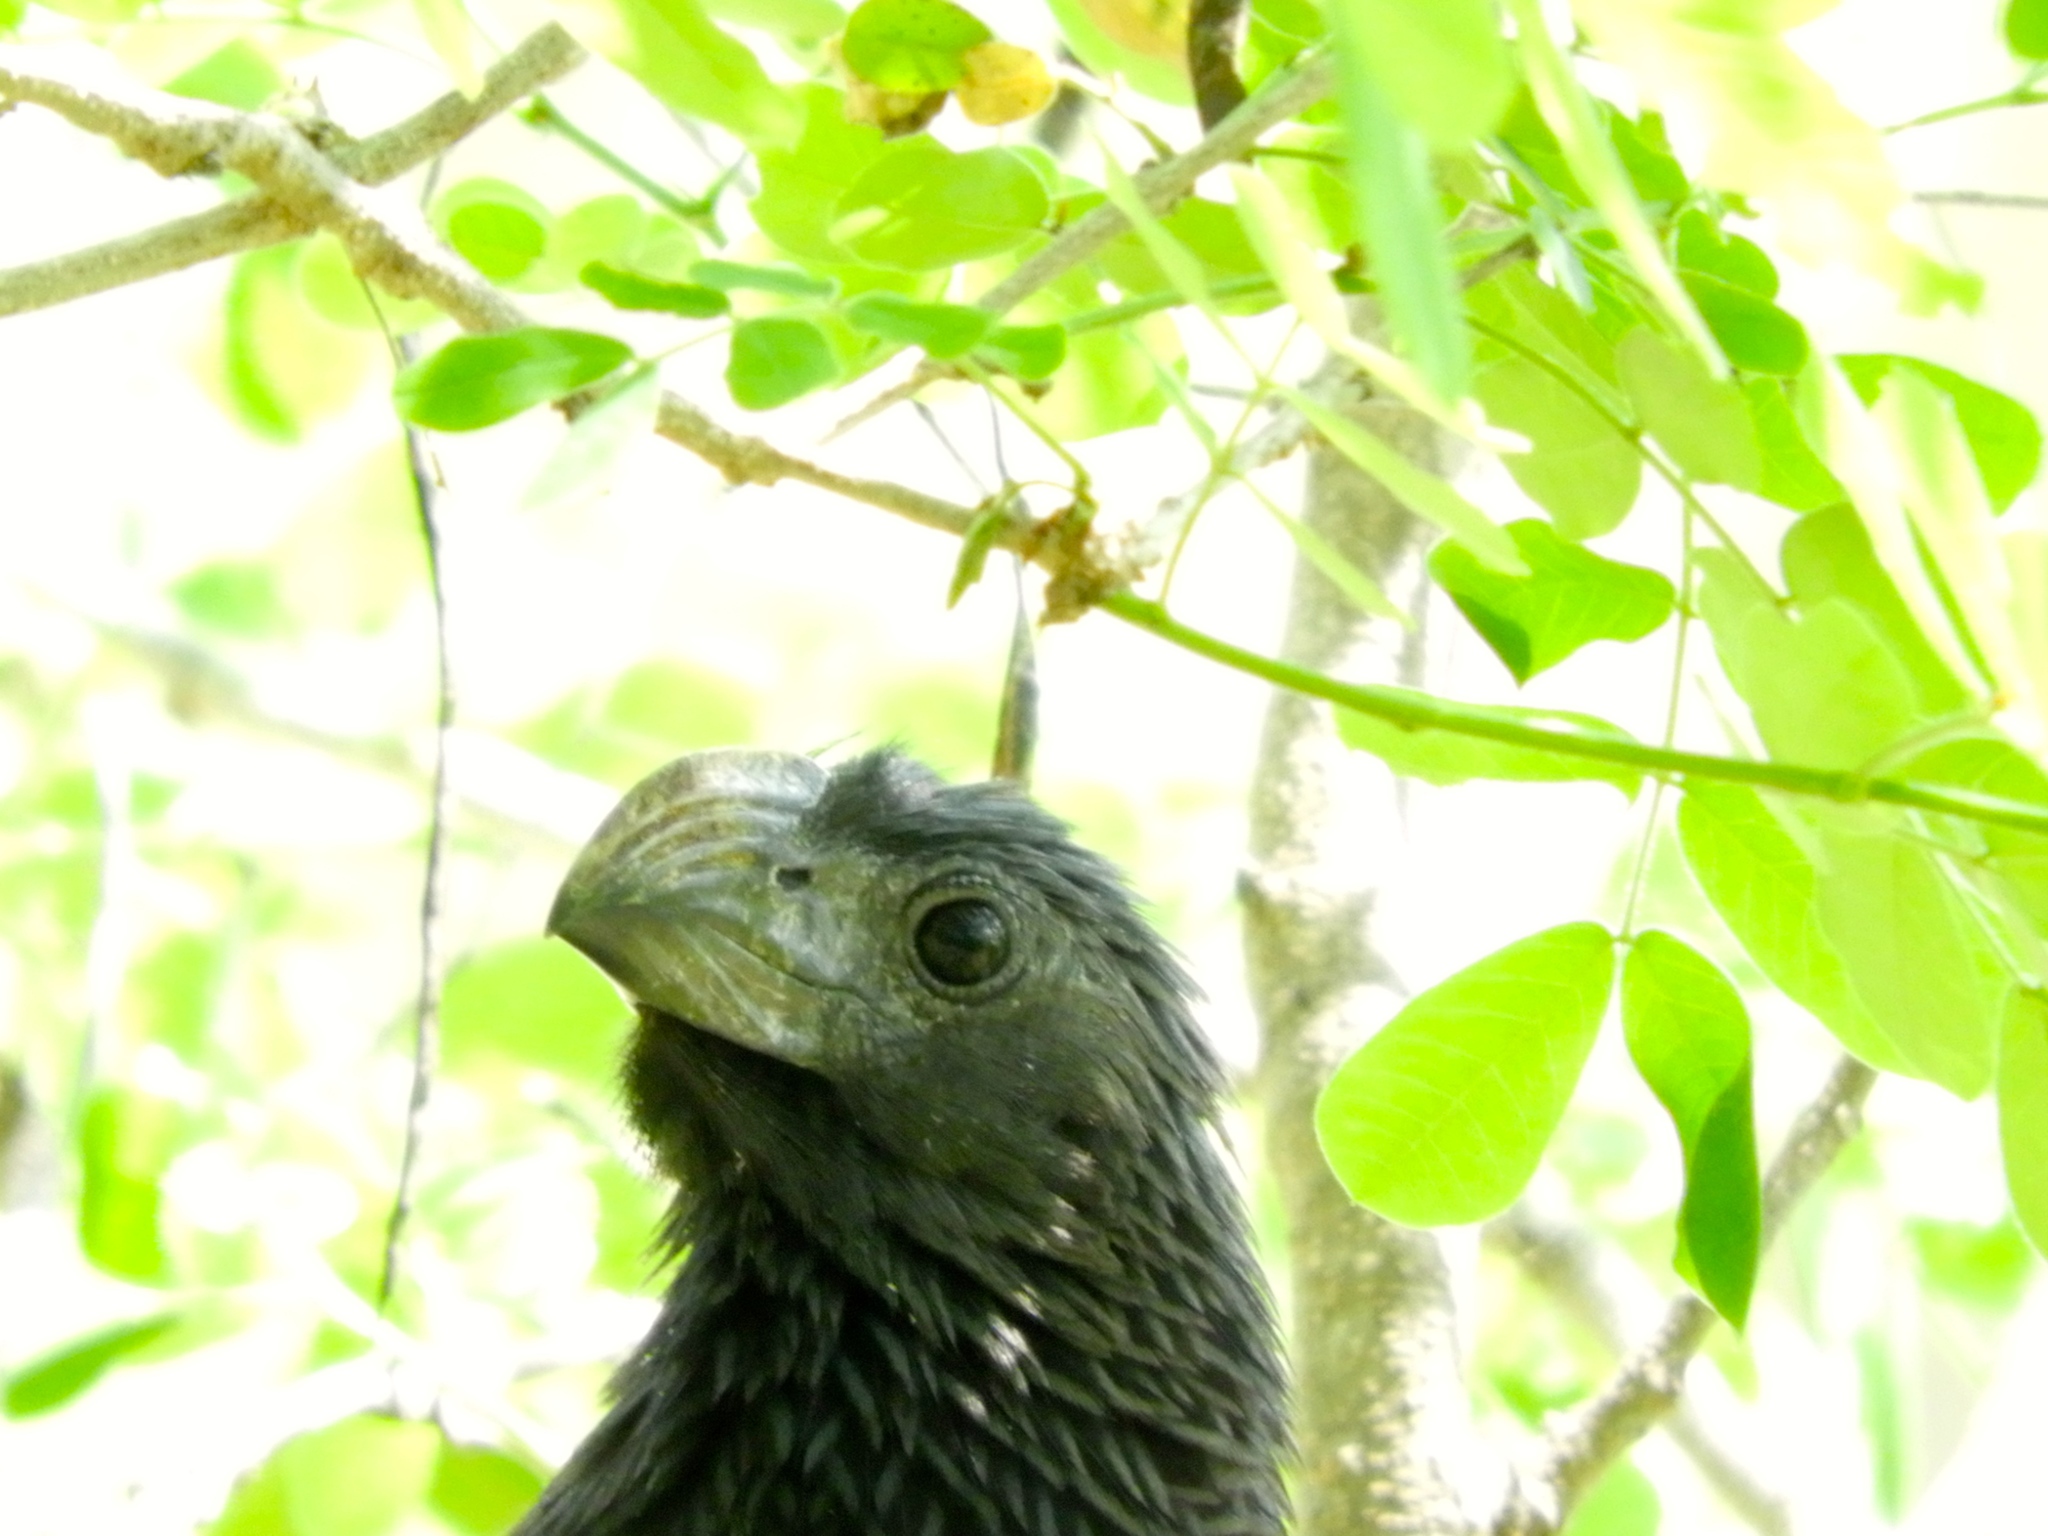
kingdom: Animalia
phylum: Chordata
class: Aves
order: Cuculiformes
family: Cuculidae
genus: Crotophaga
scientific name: Crotophaga sulcirostris
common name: Groove-billed ani
